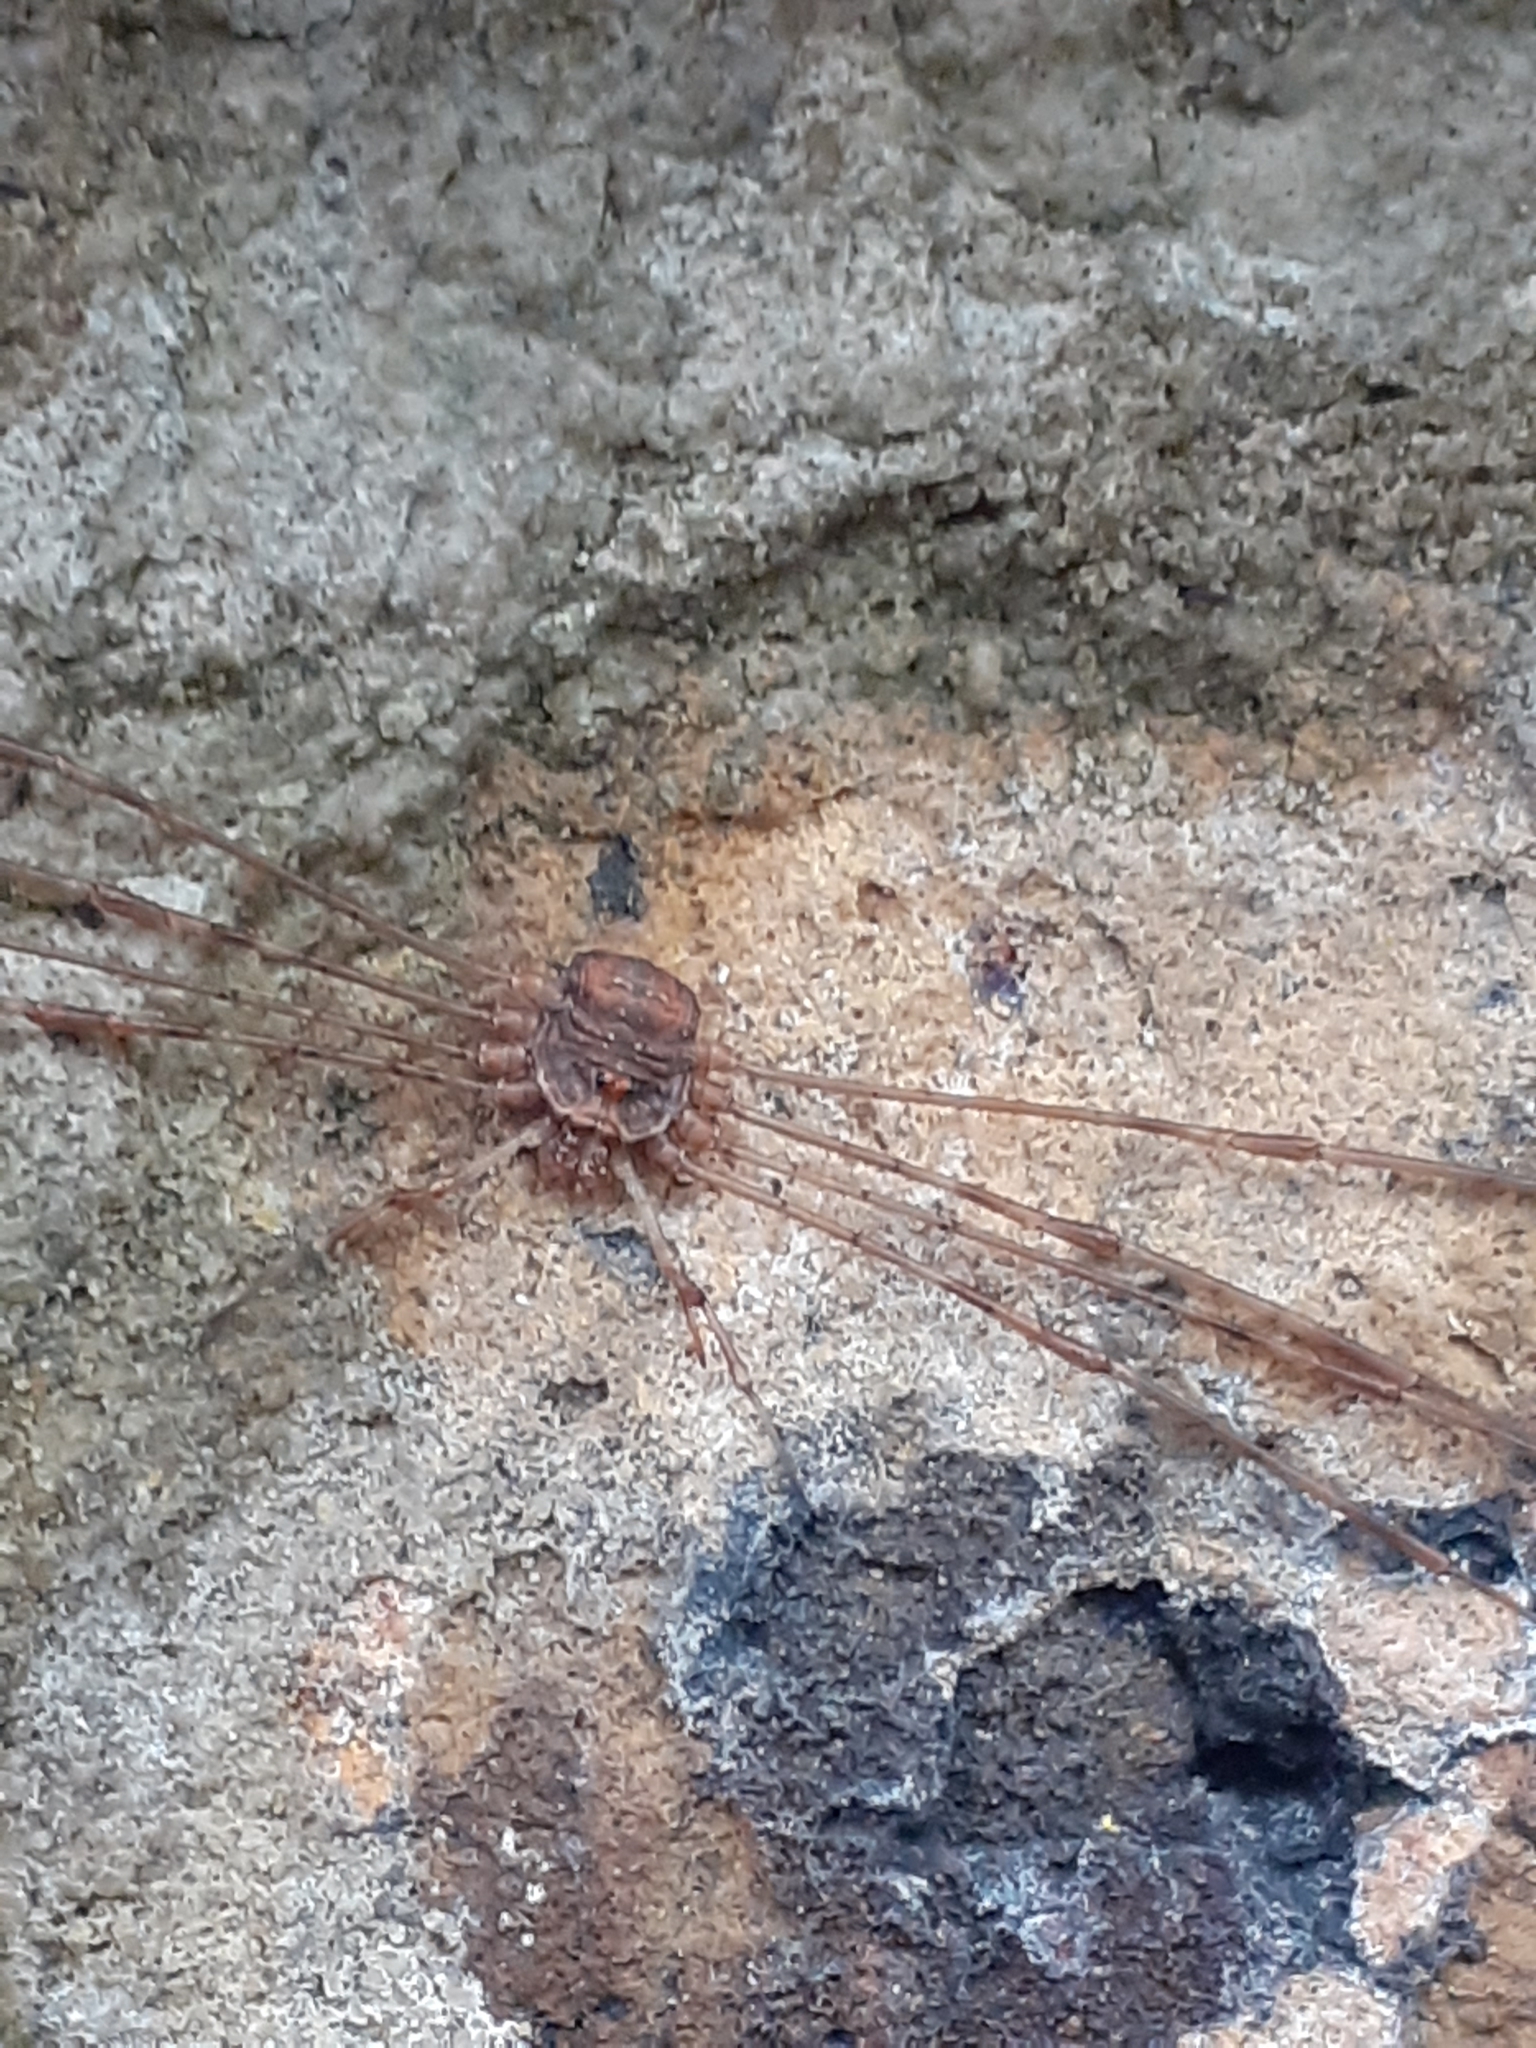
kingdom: Animalia
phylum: Arthropoda
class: Arachnida
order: Opiliones
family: Phalangiidae
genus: Dicranopalpus
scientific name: Dicranopalpus ramosus
